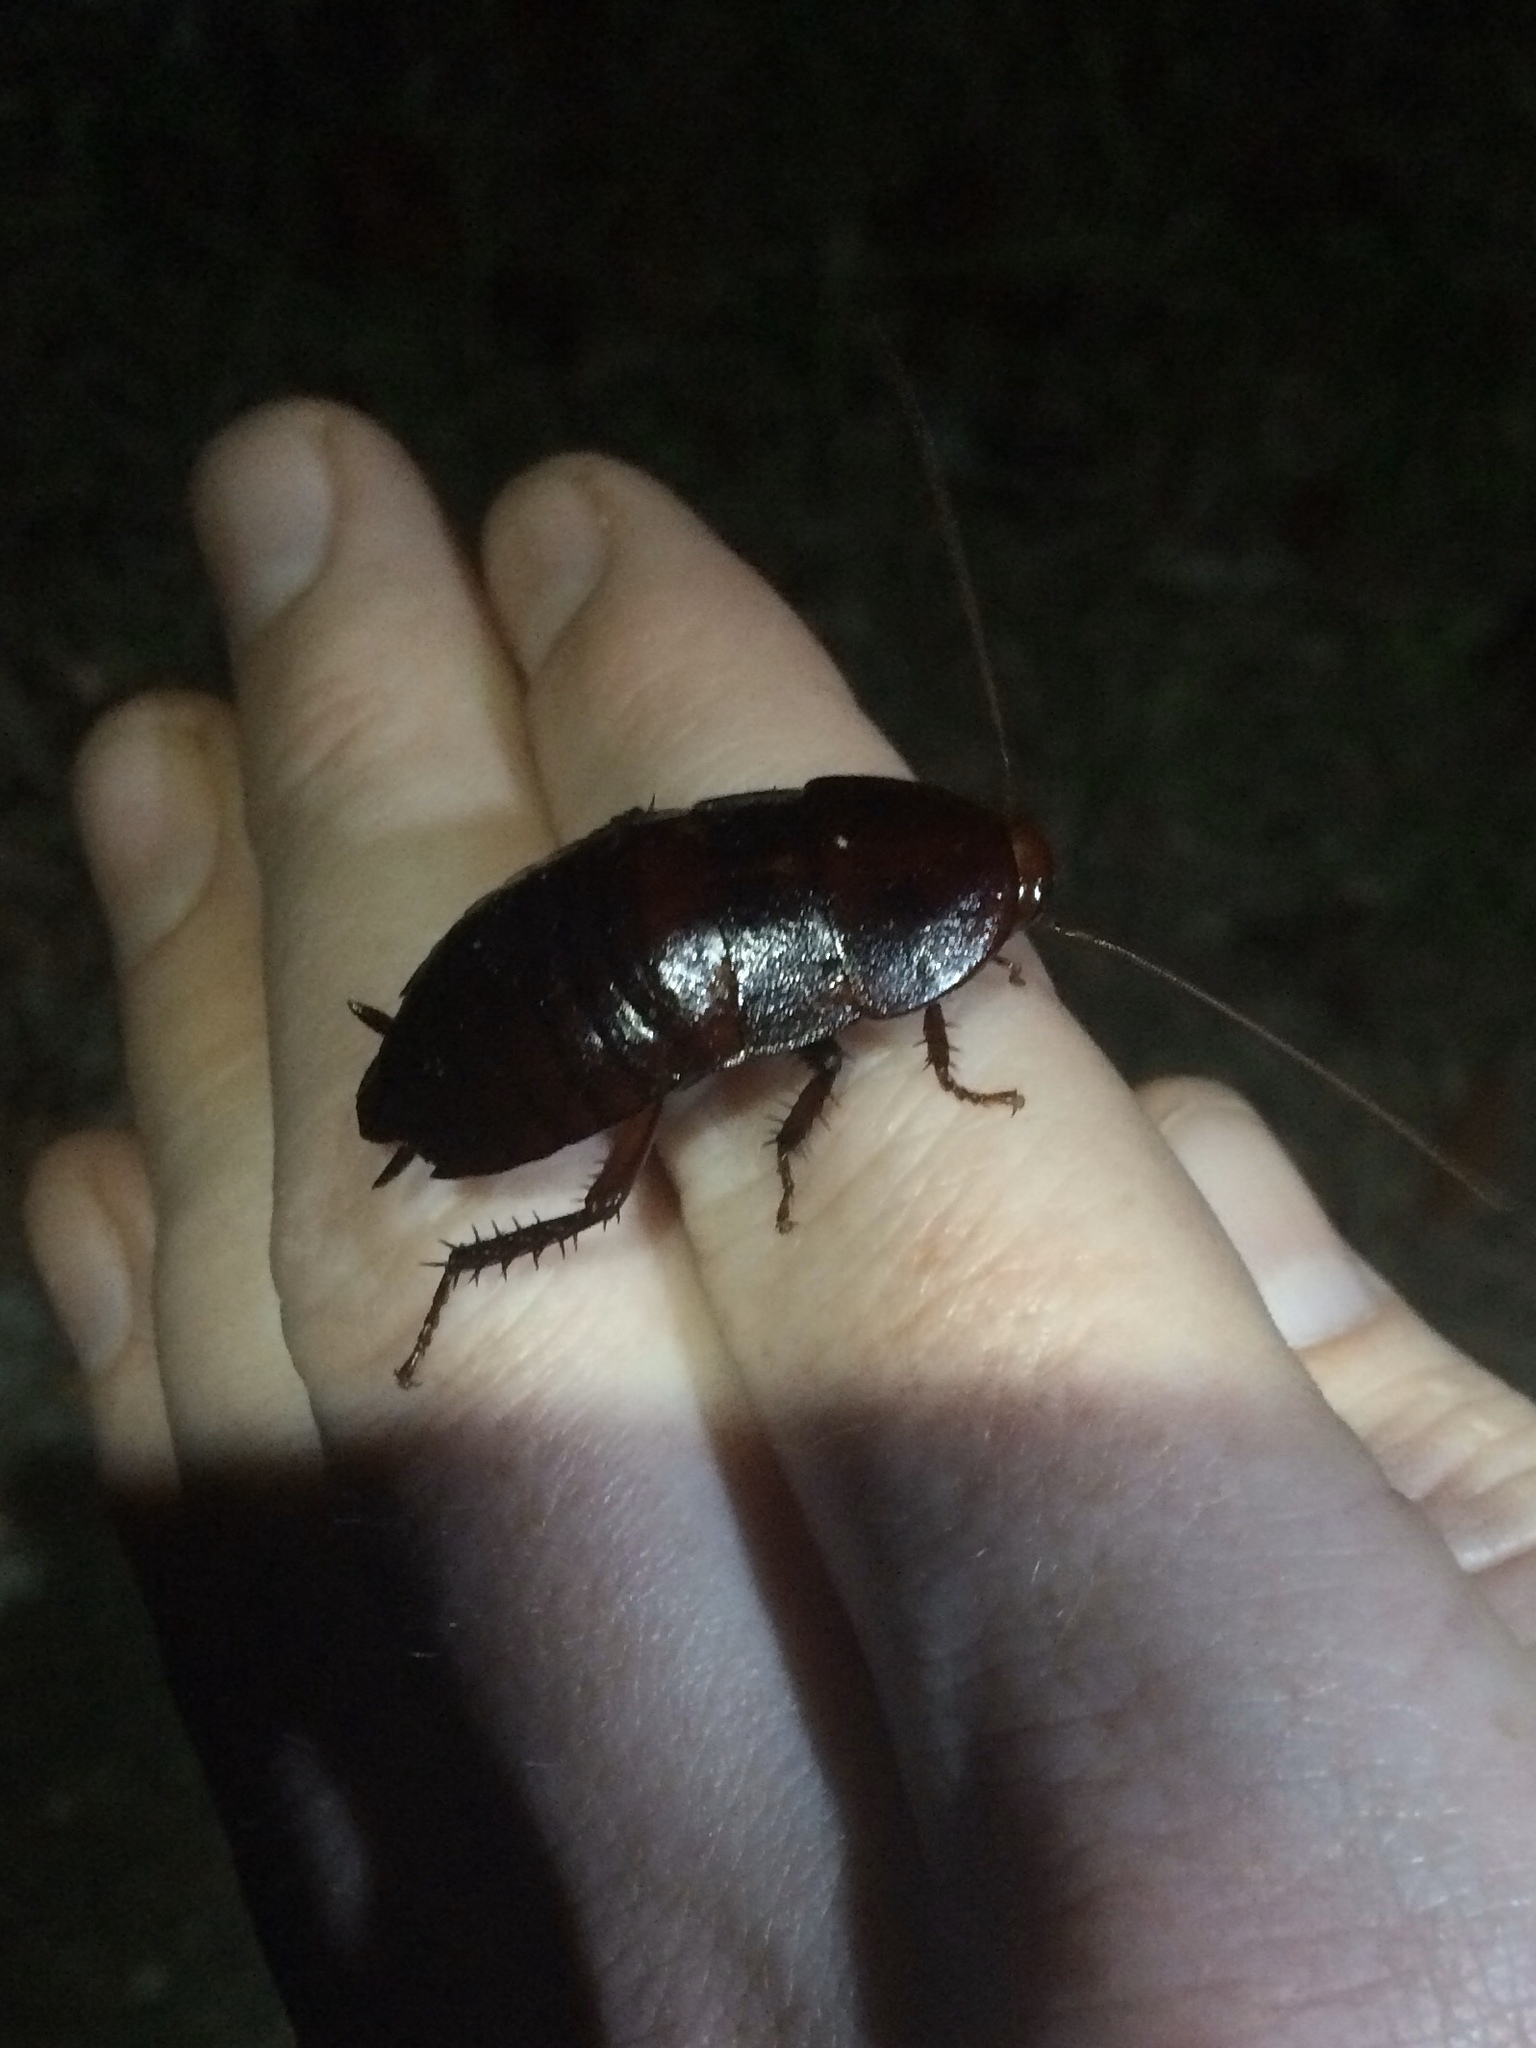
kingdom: Animalia
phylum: Arthropoda
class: Insecta
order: Blattodea
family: Blattidae
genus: Eurycotis
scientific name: Eurycotis floridana
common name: Florida cockroach
